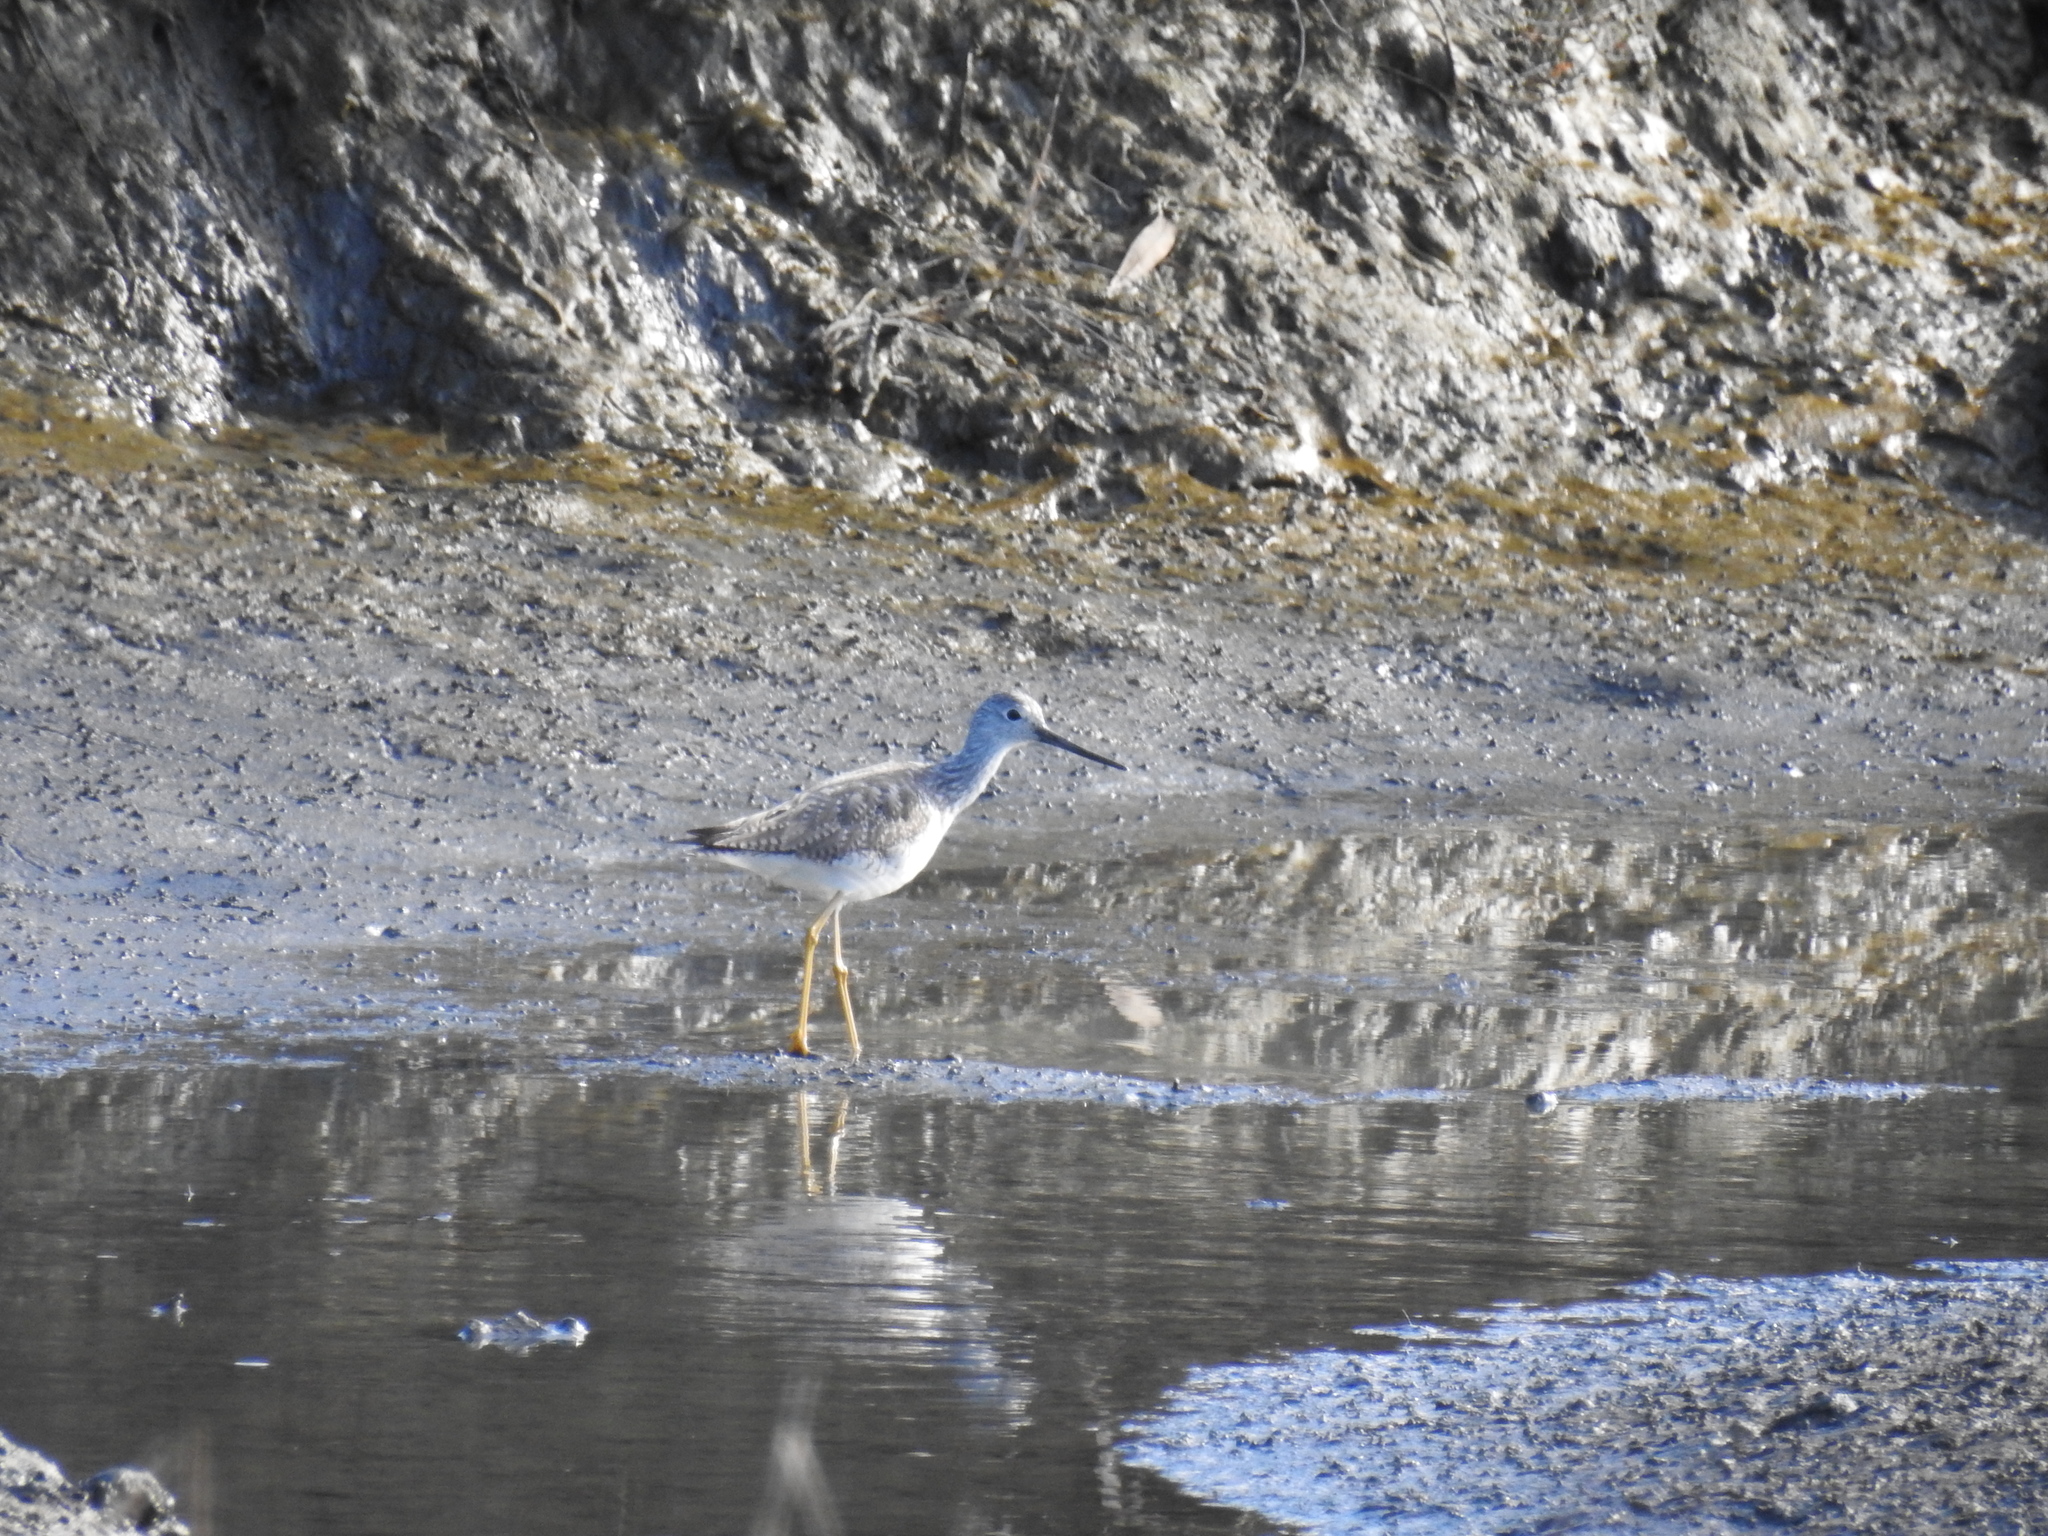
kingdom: Animalia
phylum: Chordata
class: Aves
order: Charadriiformes
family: Scolopacidae
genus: Tringa
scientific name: Tringa melanoleuca
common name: Greater yellowlegs
